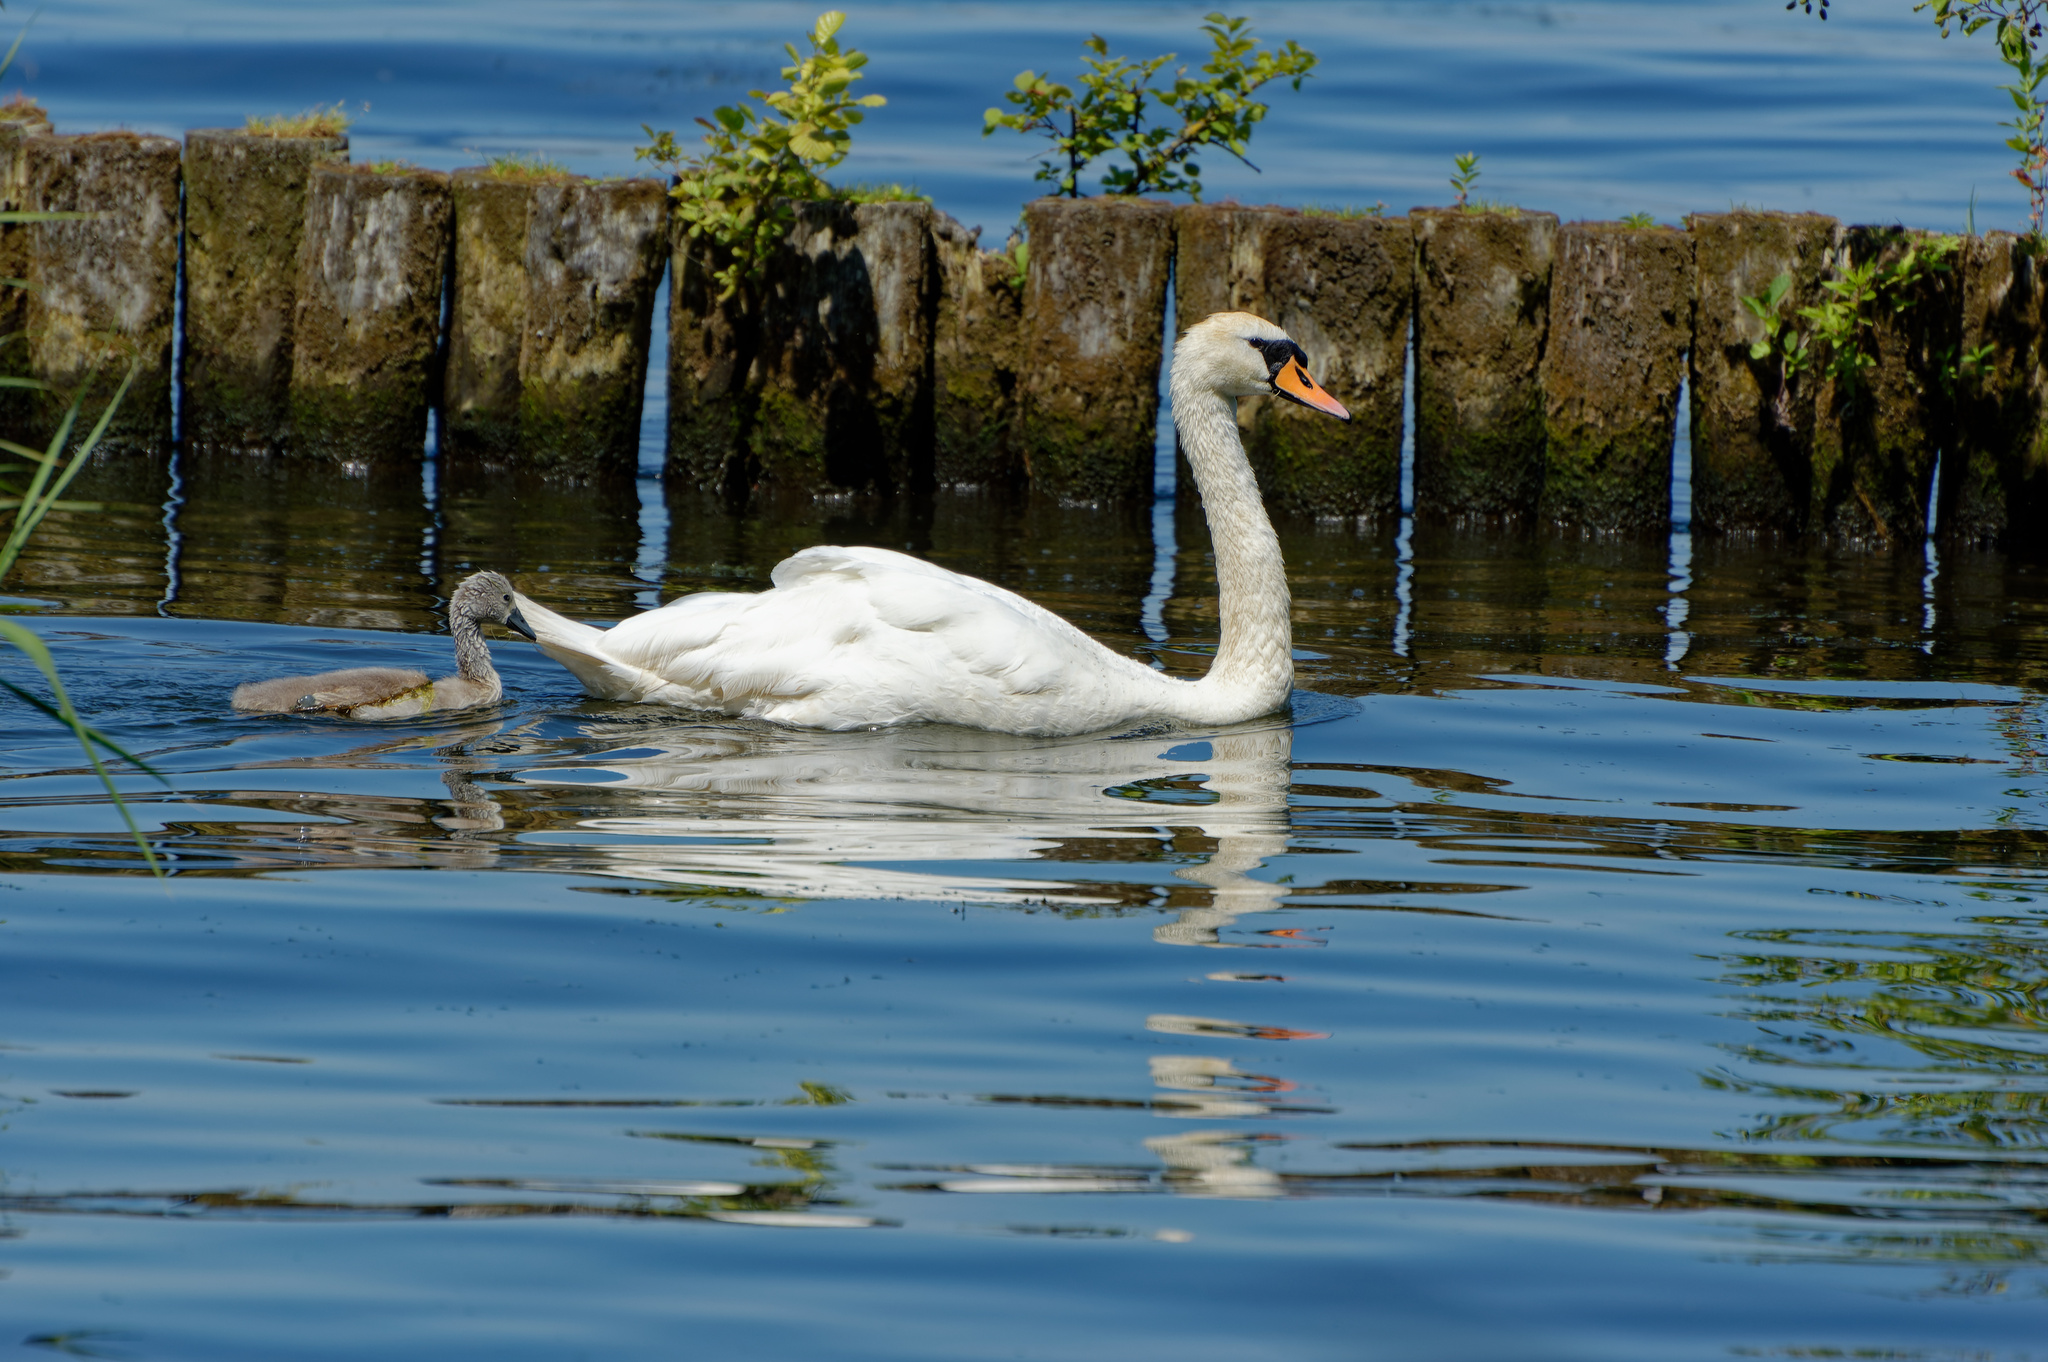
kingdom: Animalia
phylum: Chordata
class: Aves
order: Anseriformes
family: Anatidae
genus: Cygnus
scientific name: Cygnus olor
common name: Mute swan
